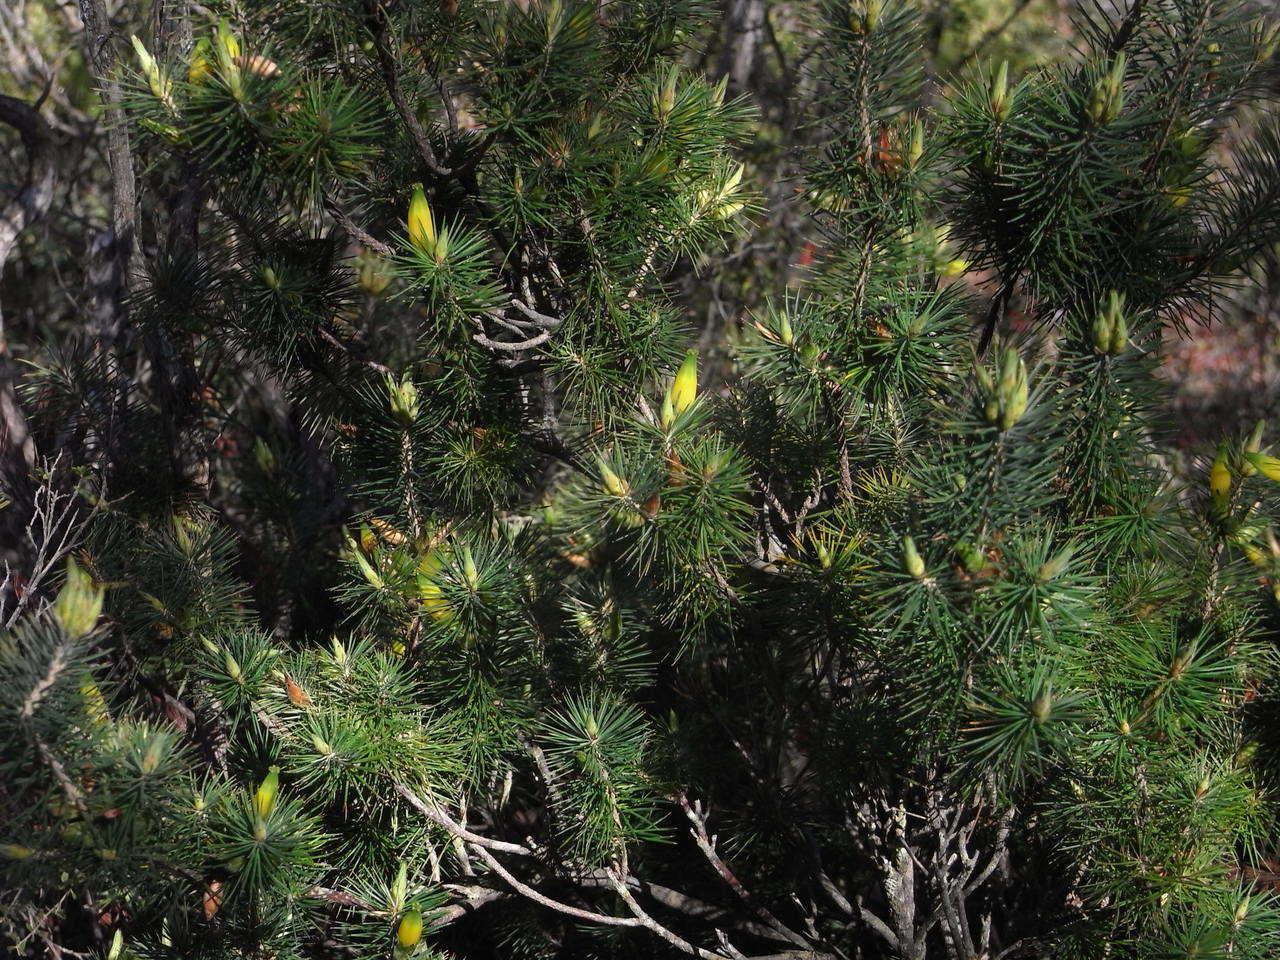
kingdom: Plantae
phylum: Tracheophyta
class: Magnoliopsida
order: Ericales
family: Ericaceae
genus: Stenanthera
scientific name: Stenanthera pinifolia
